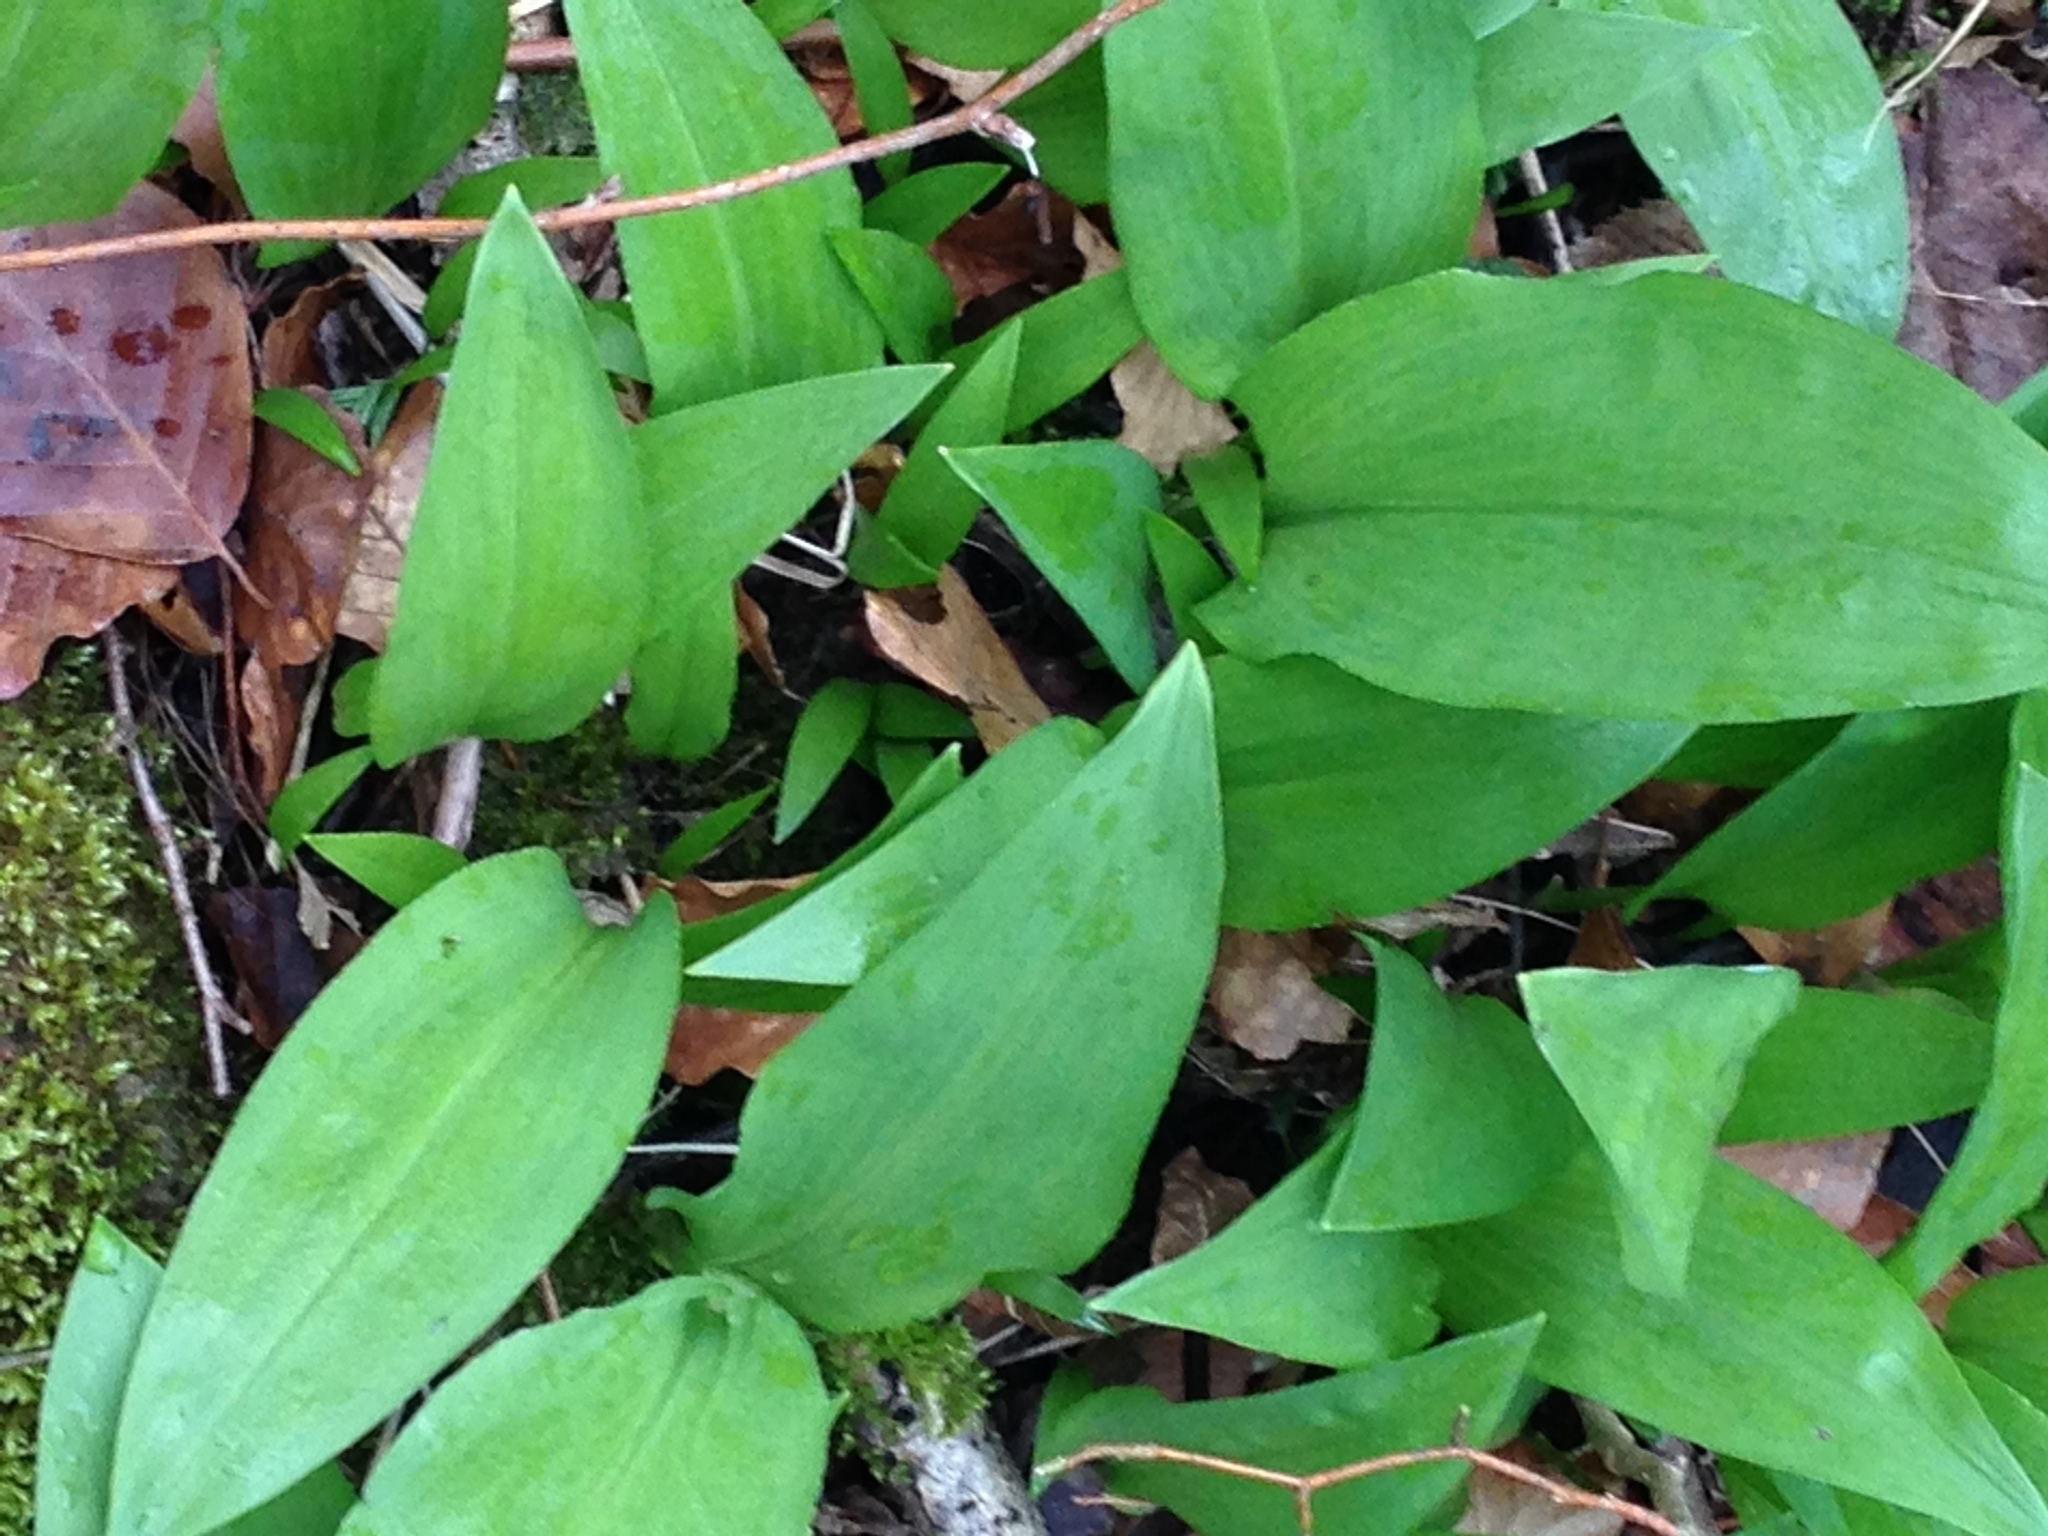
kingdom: Plantae
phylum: Tracheophyta
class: Liliopsida
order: Asparagales
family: Amaryllidaceae
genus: Allium
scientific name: Allium ursinum
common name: Ramsons
